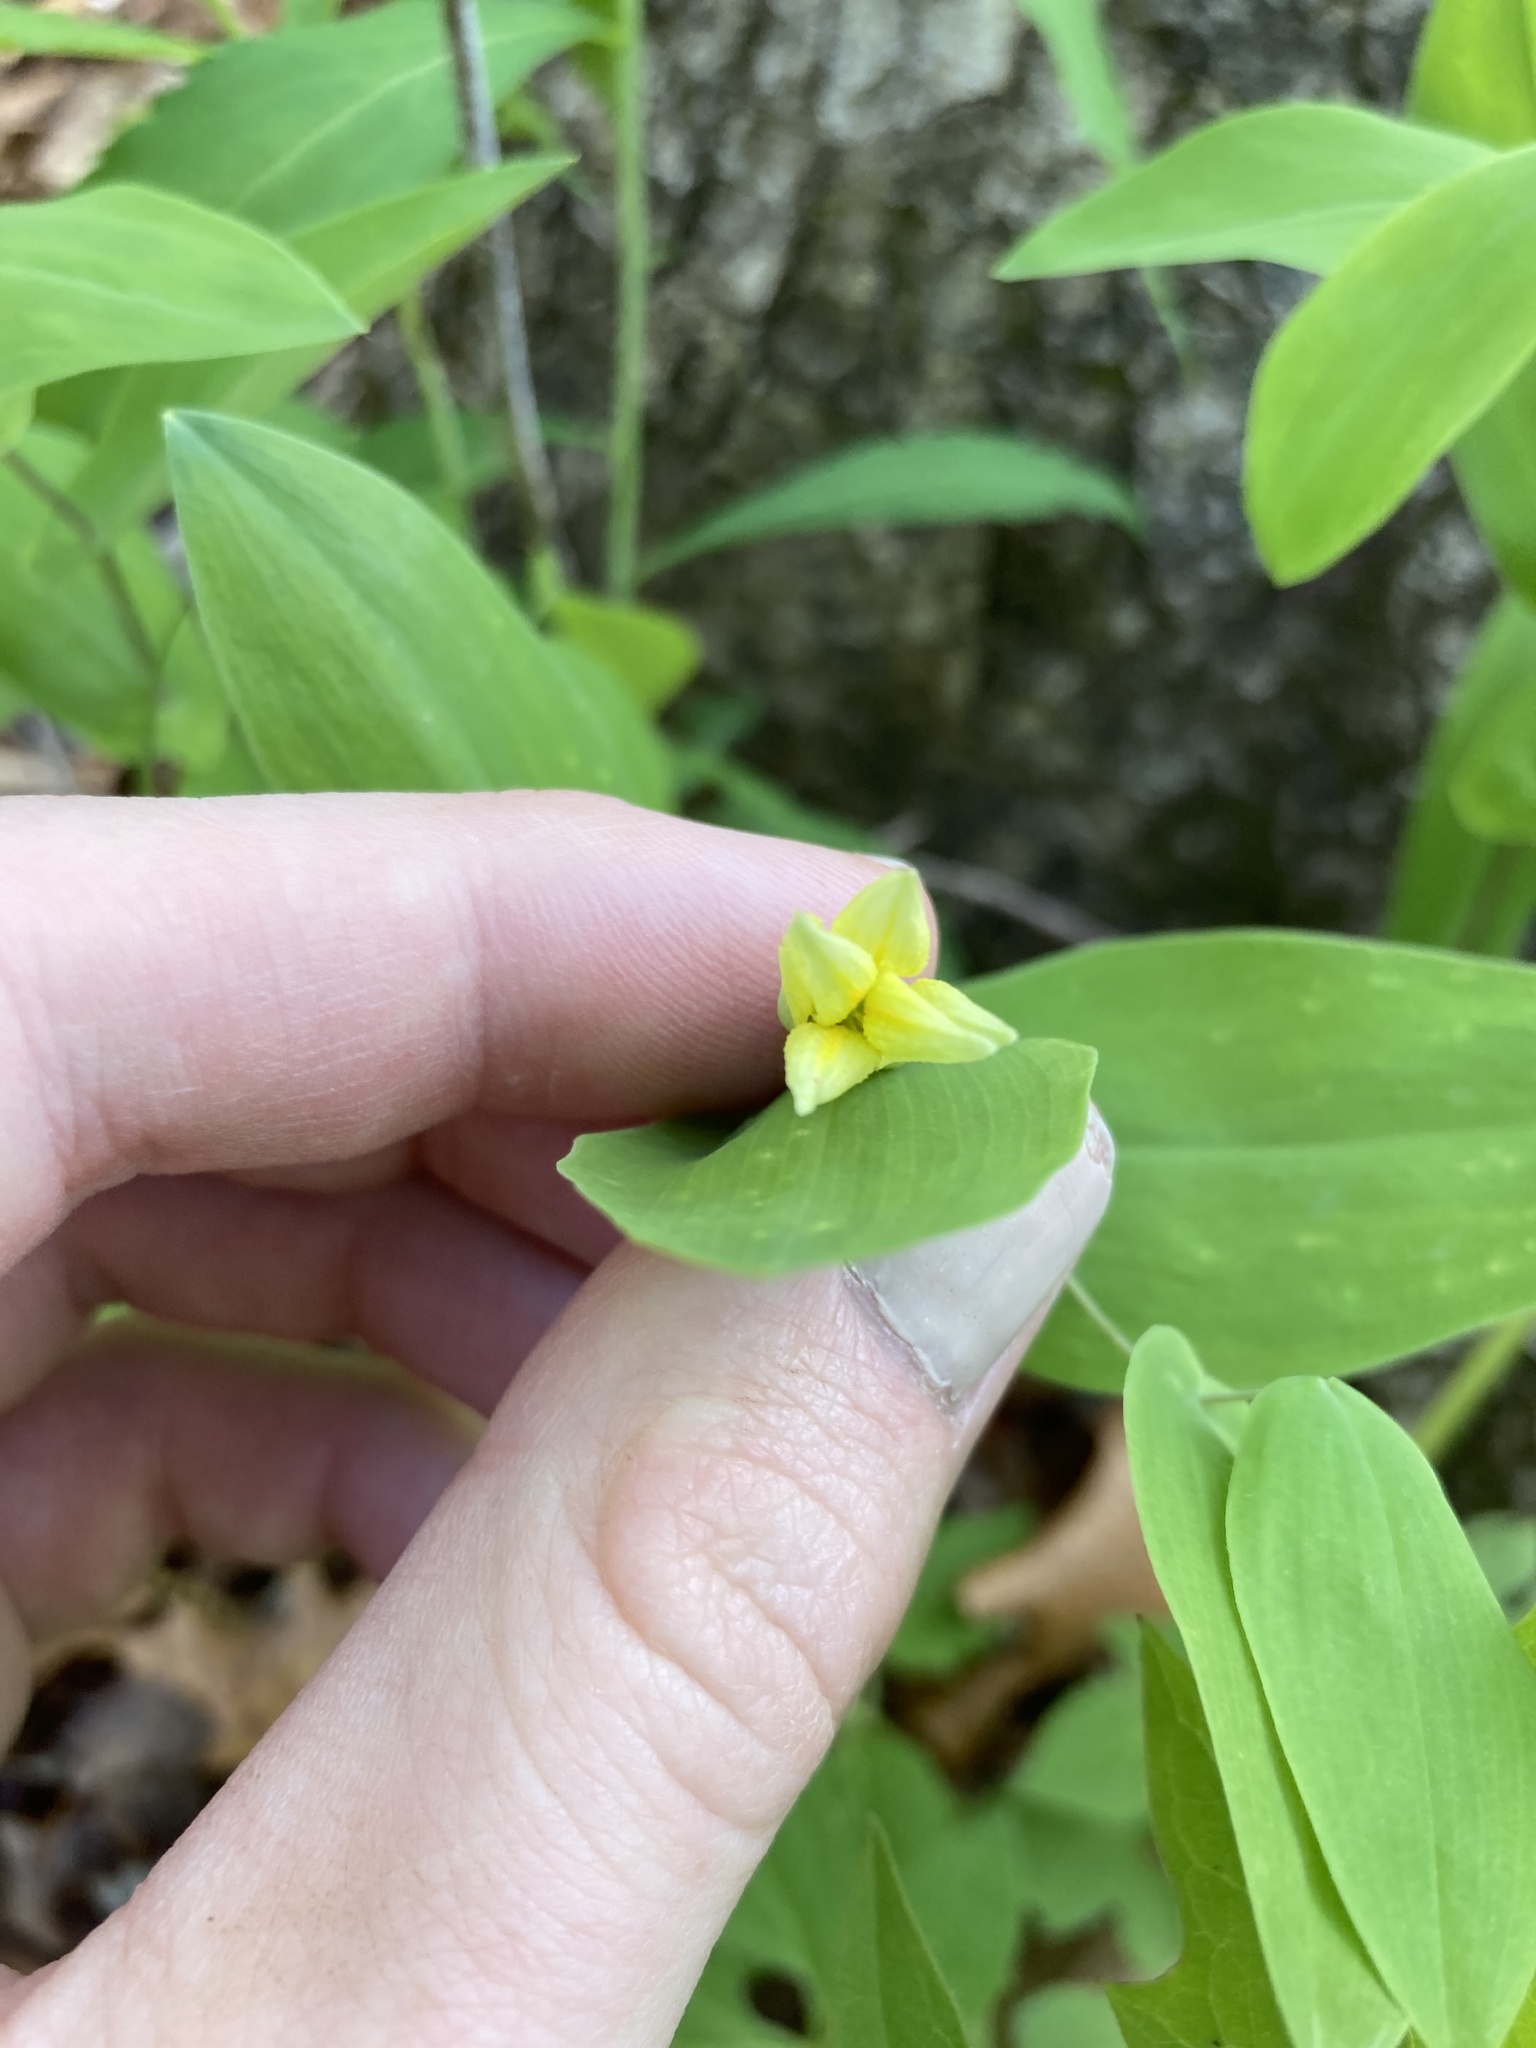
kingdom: Plantae
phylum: Tracheophyta
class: Liliopsida
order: Liliales
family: Colchicaceae
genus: Uvularia
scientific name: Uvularia perfoliata
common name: Perfoliate bellwort
